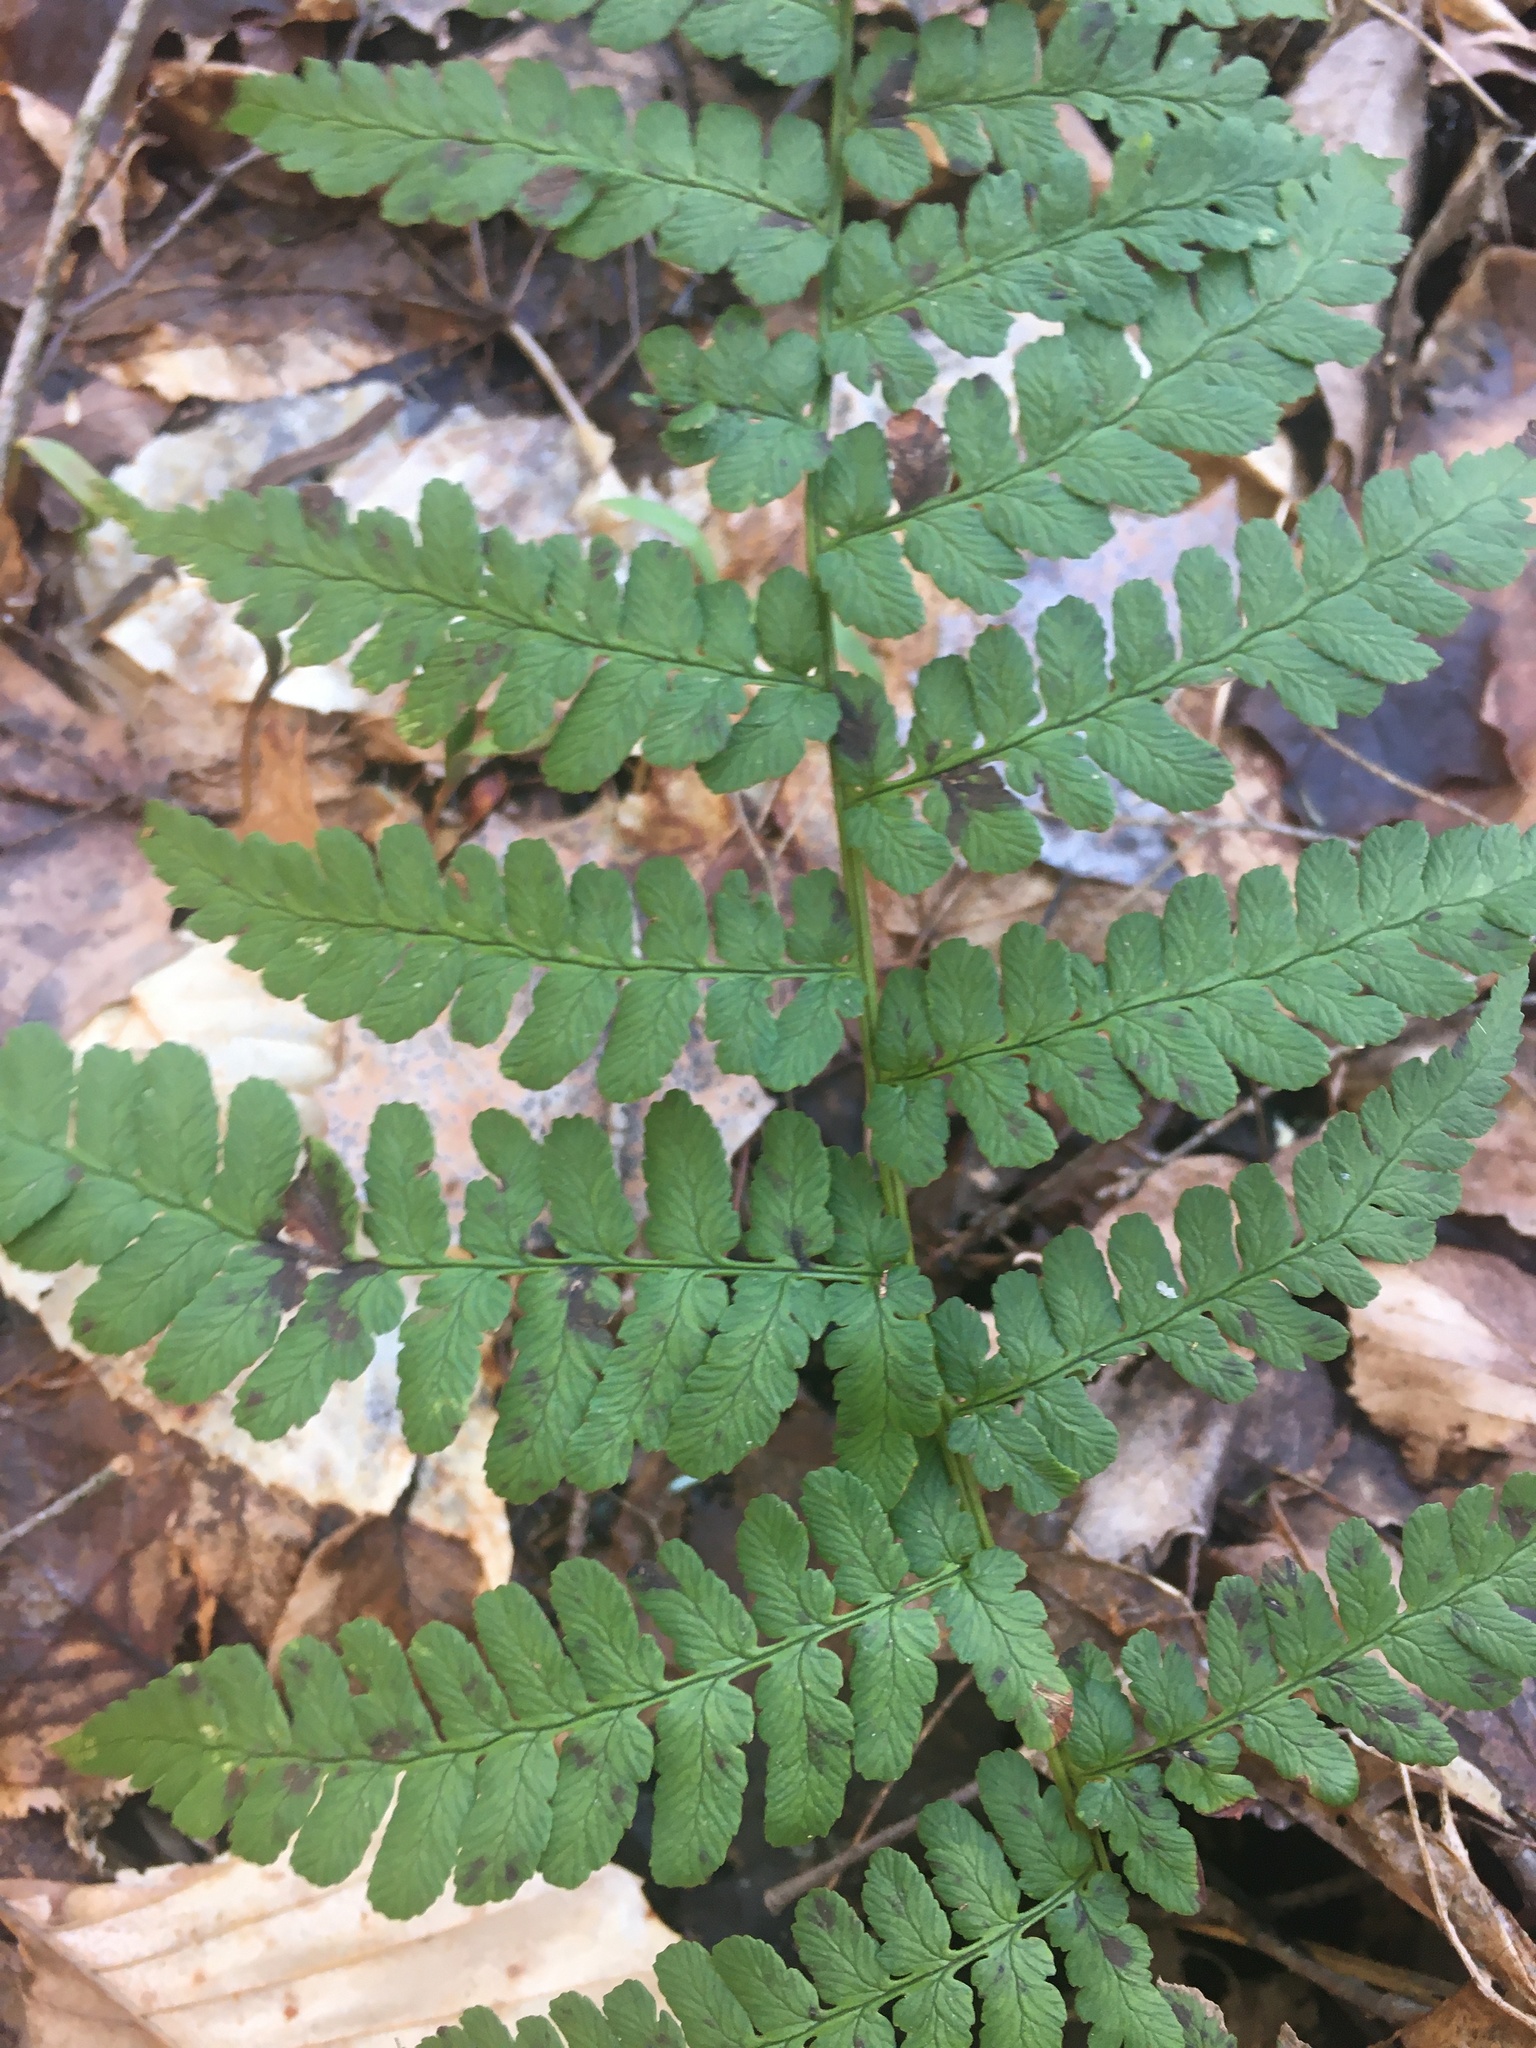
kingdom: Plantae
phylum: Tracheophyta
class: Polypodiopsida
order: Polypodiales
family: Dryopteridaceae
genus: Dryopteris
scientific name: Dryopteris marginalis
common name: Marginal wood fern
